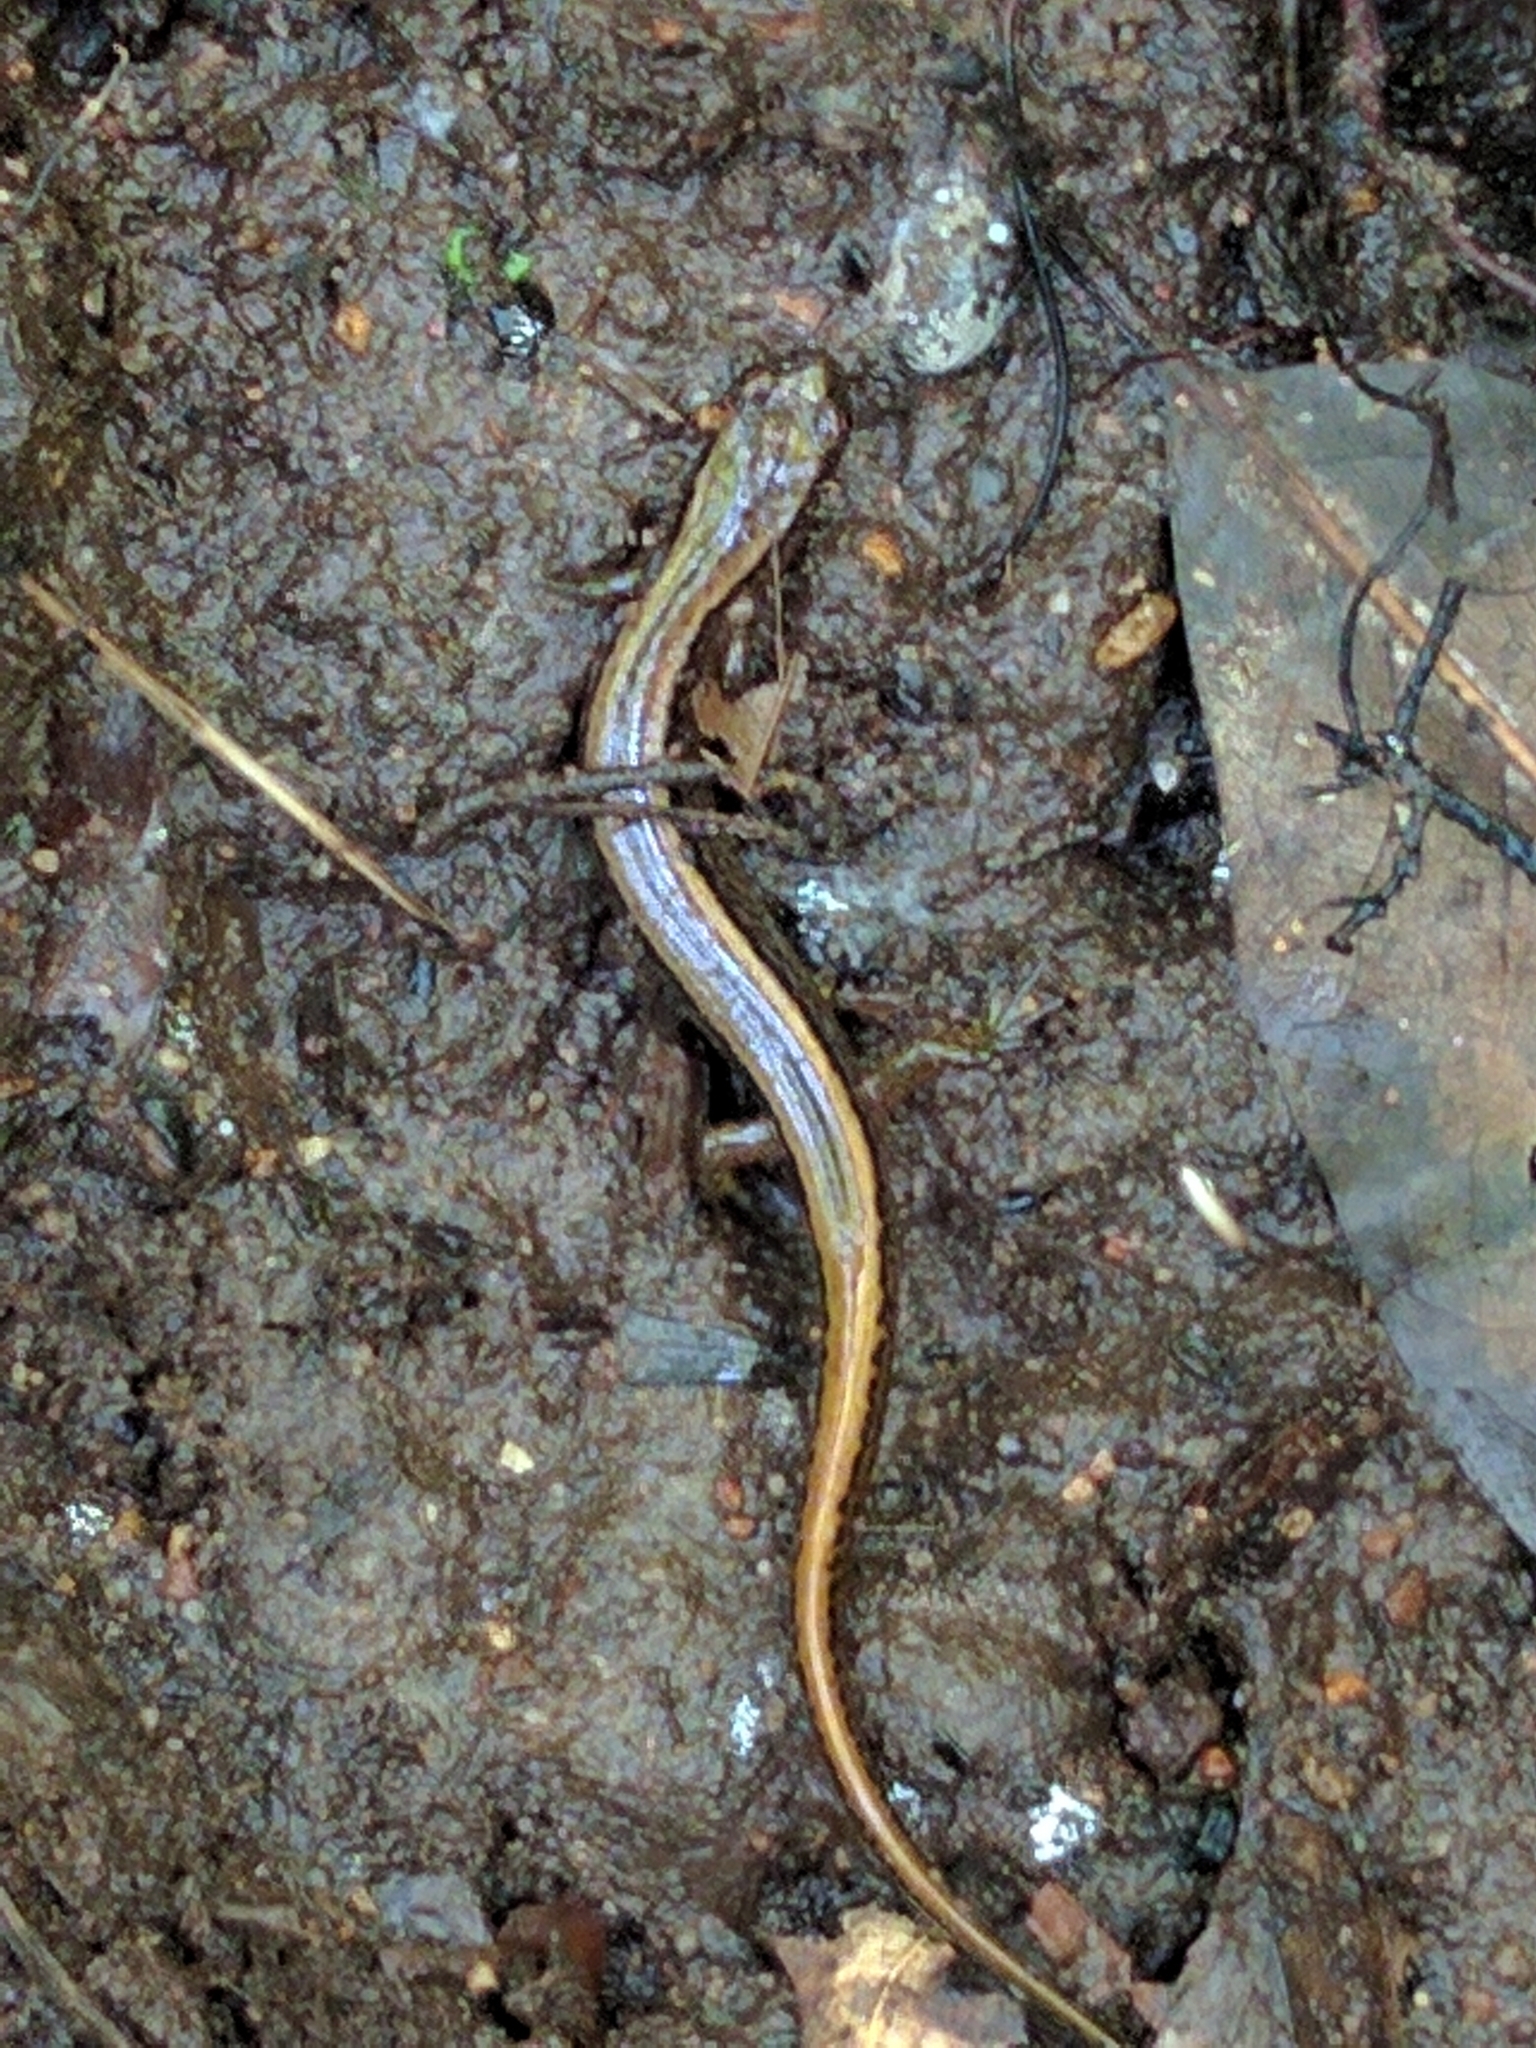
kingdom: Animalia
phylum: Chordata
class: Amphibia
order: Caudata
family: Plethodontidae
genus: Eurycea
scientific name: Eurycea bislineata
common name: Northern two-lined salamander
